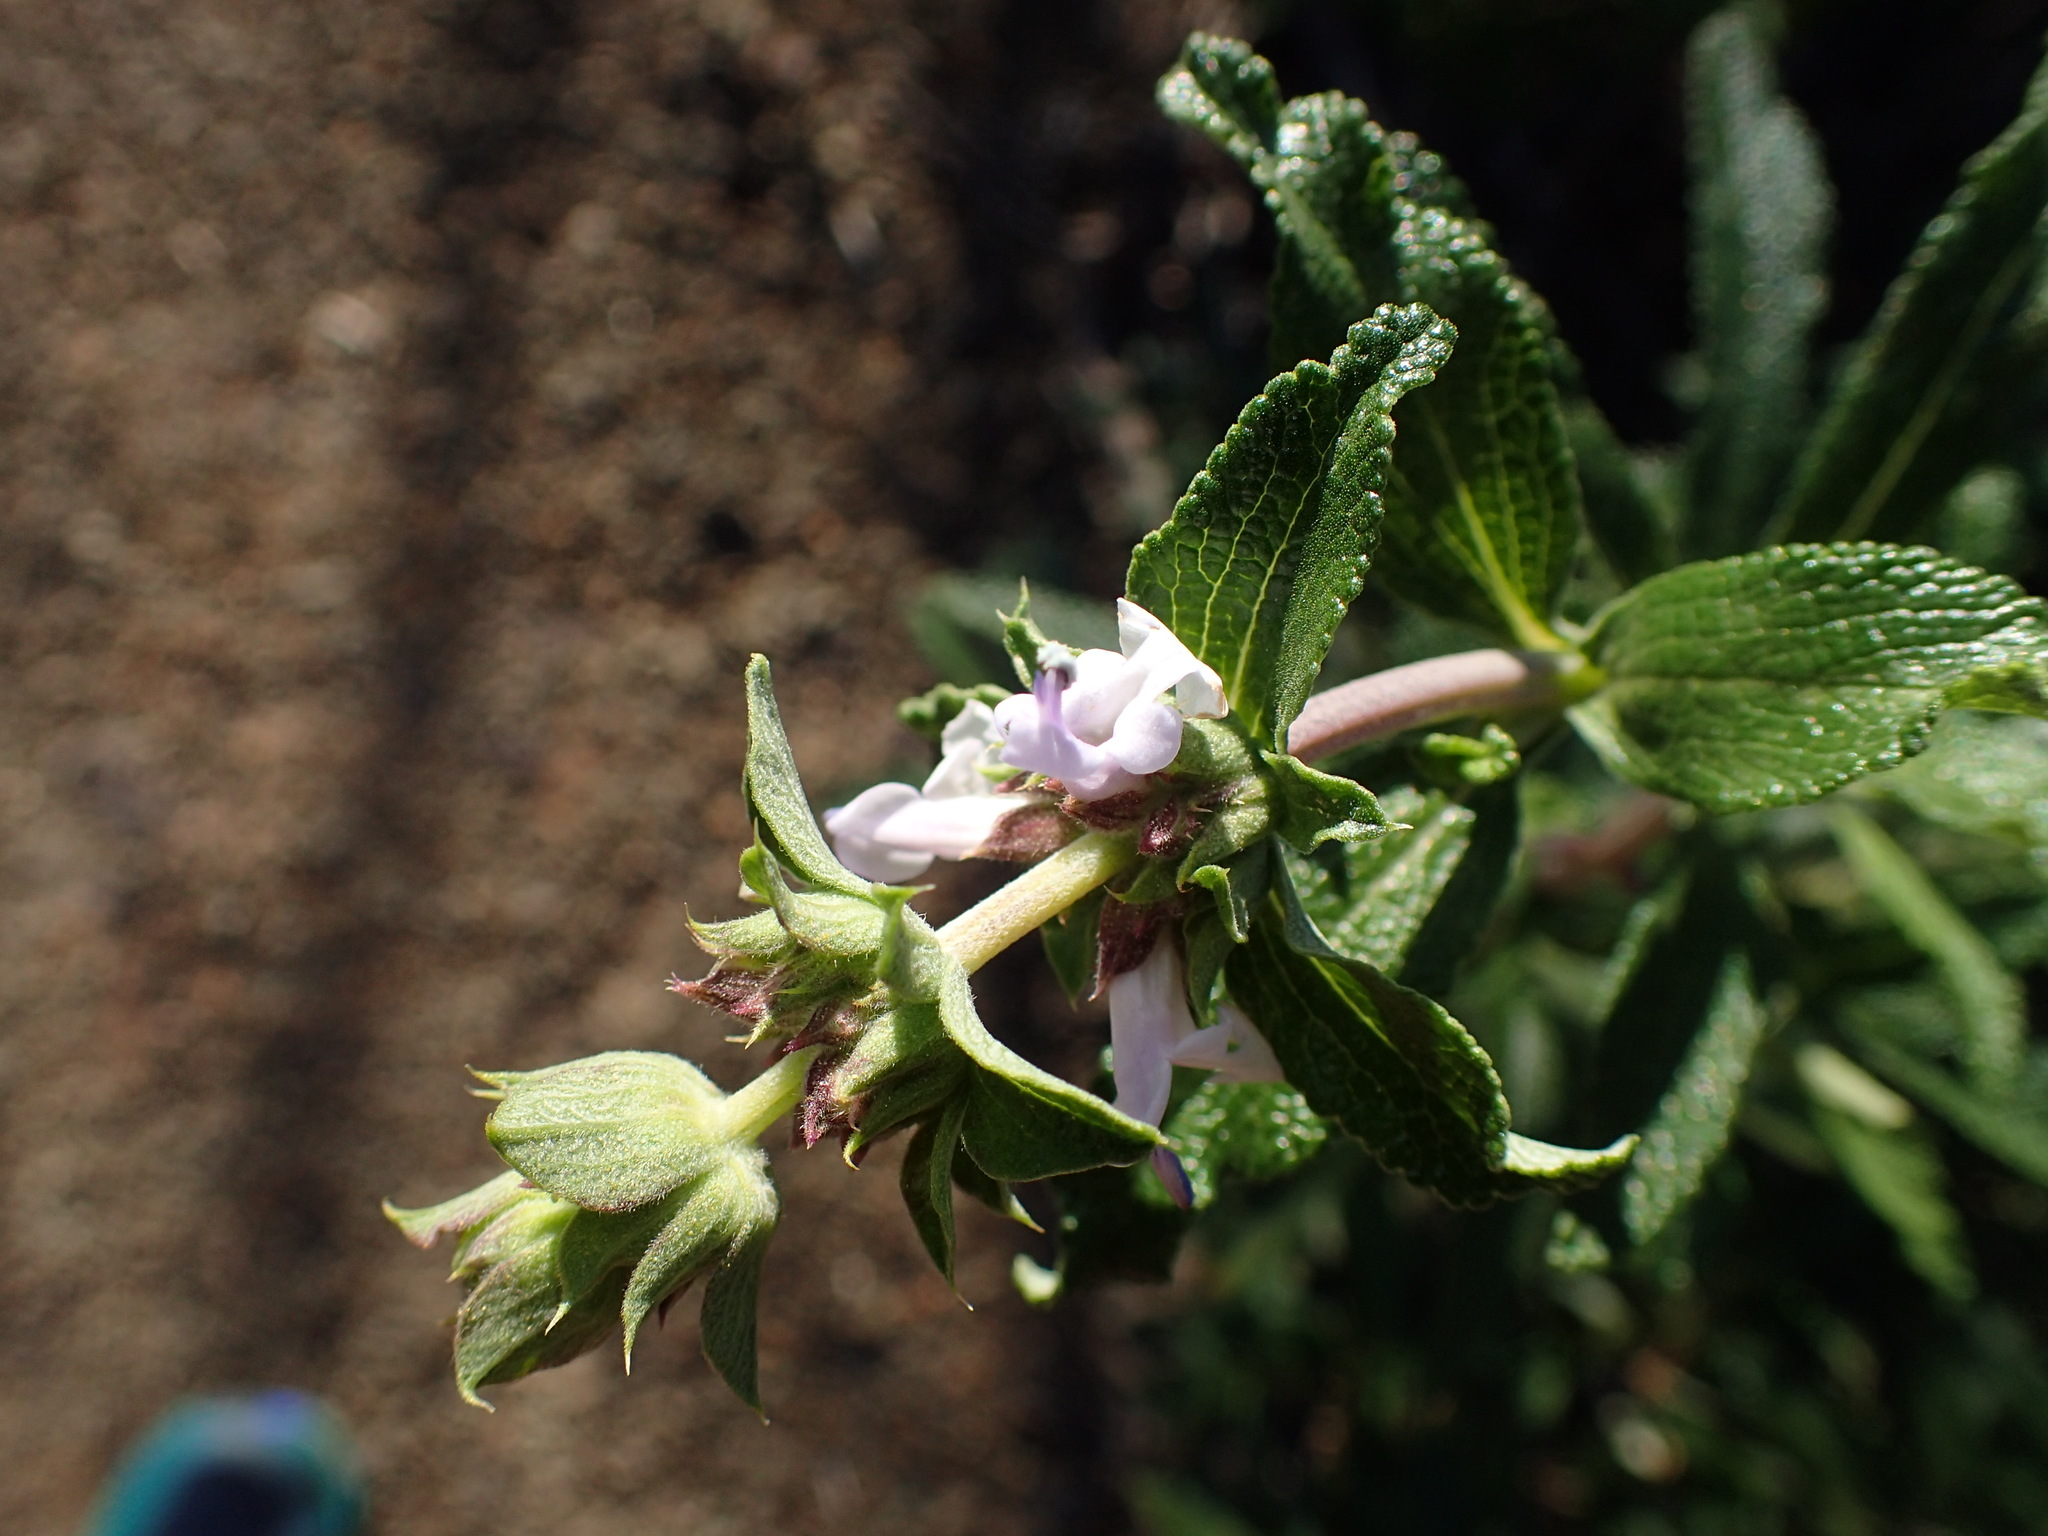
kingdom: Plantae
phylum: Tracheophyta
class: Magnoliopsida
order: Lamiales
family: Lamiaceae
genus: Salvia
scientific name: Salvia mellifera
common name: Black sage
